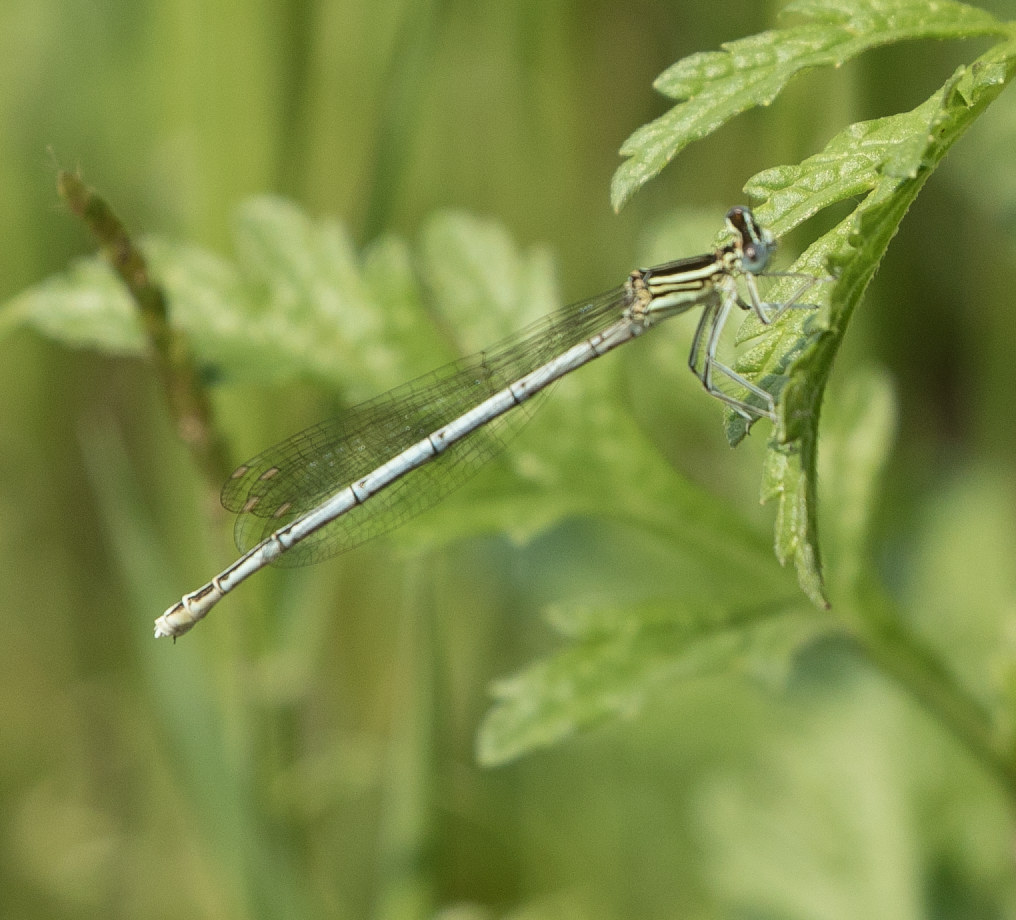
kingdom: Animalia
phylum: Arthropoda
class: Insecta
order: Odonata
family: Platycnemididae
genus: Platycnemis
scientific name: Platycnemis pennipes
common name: White-legged damselfly
